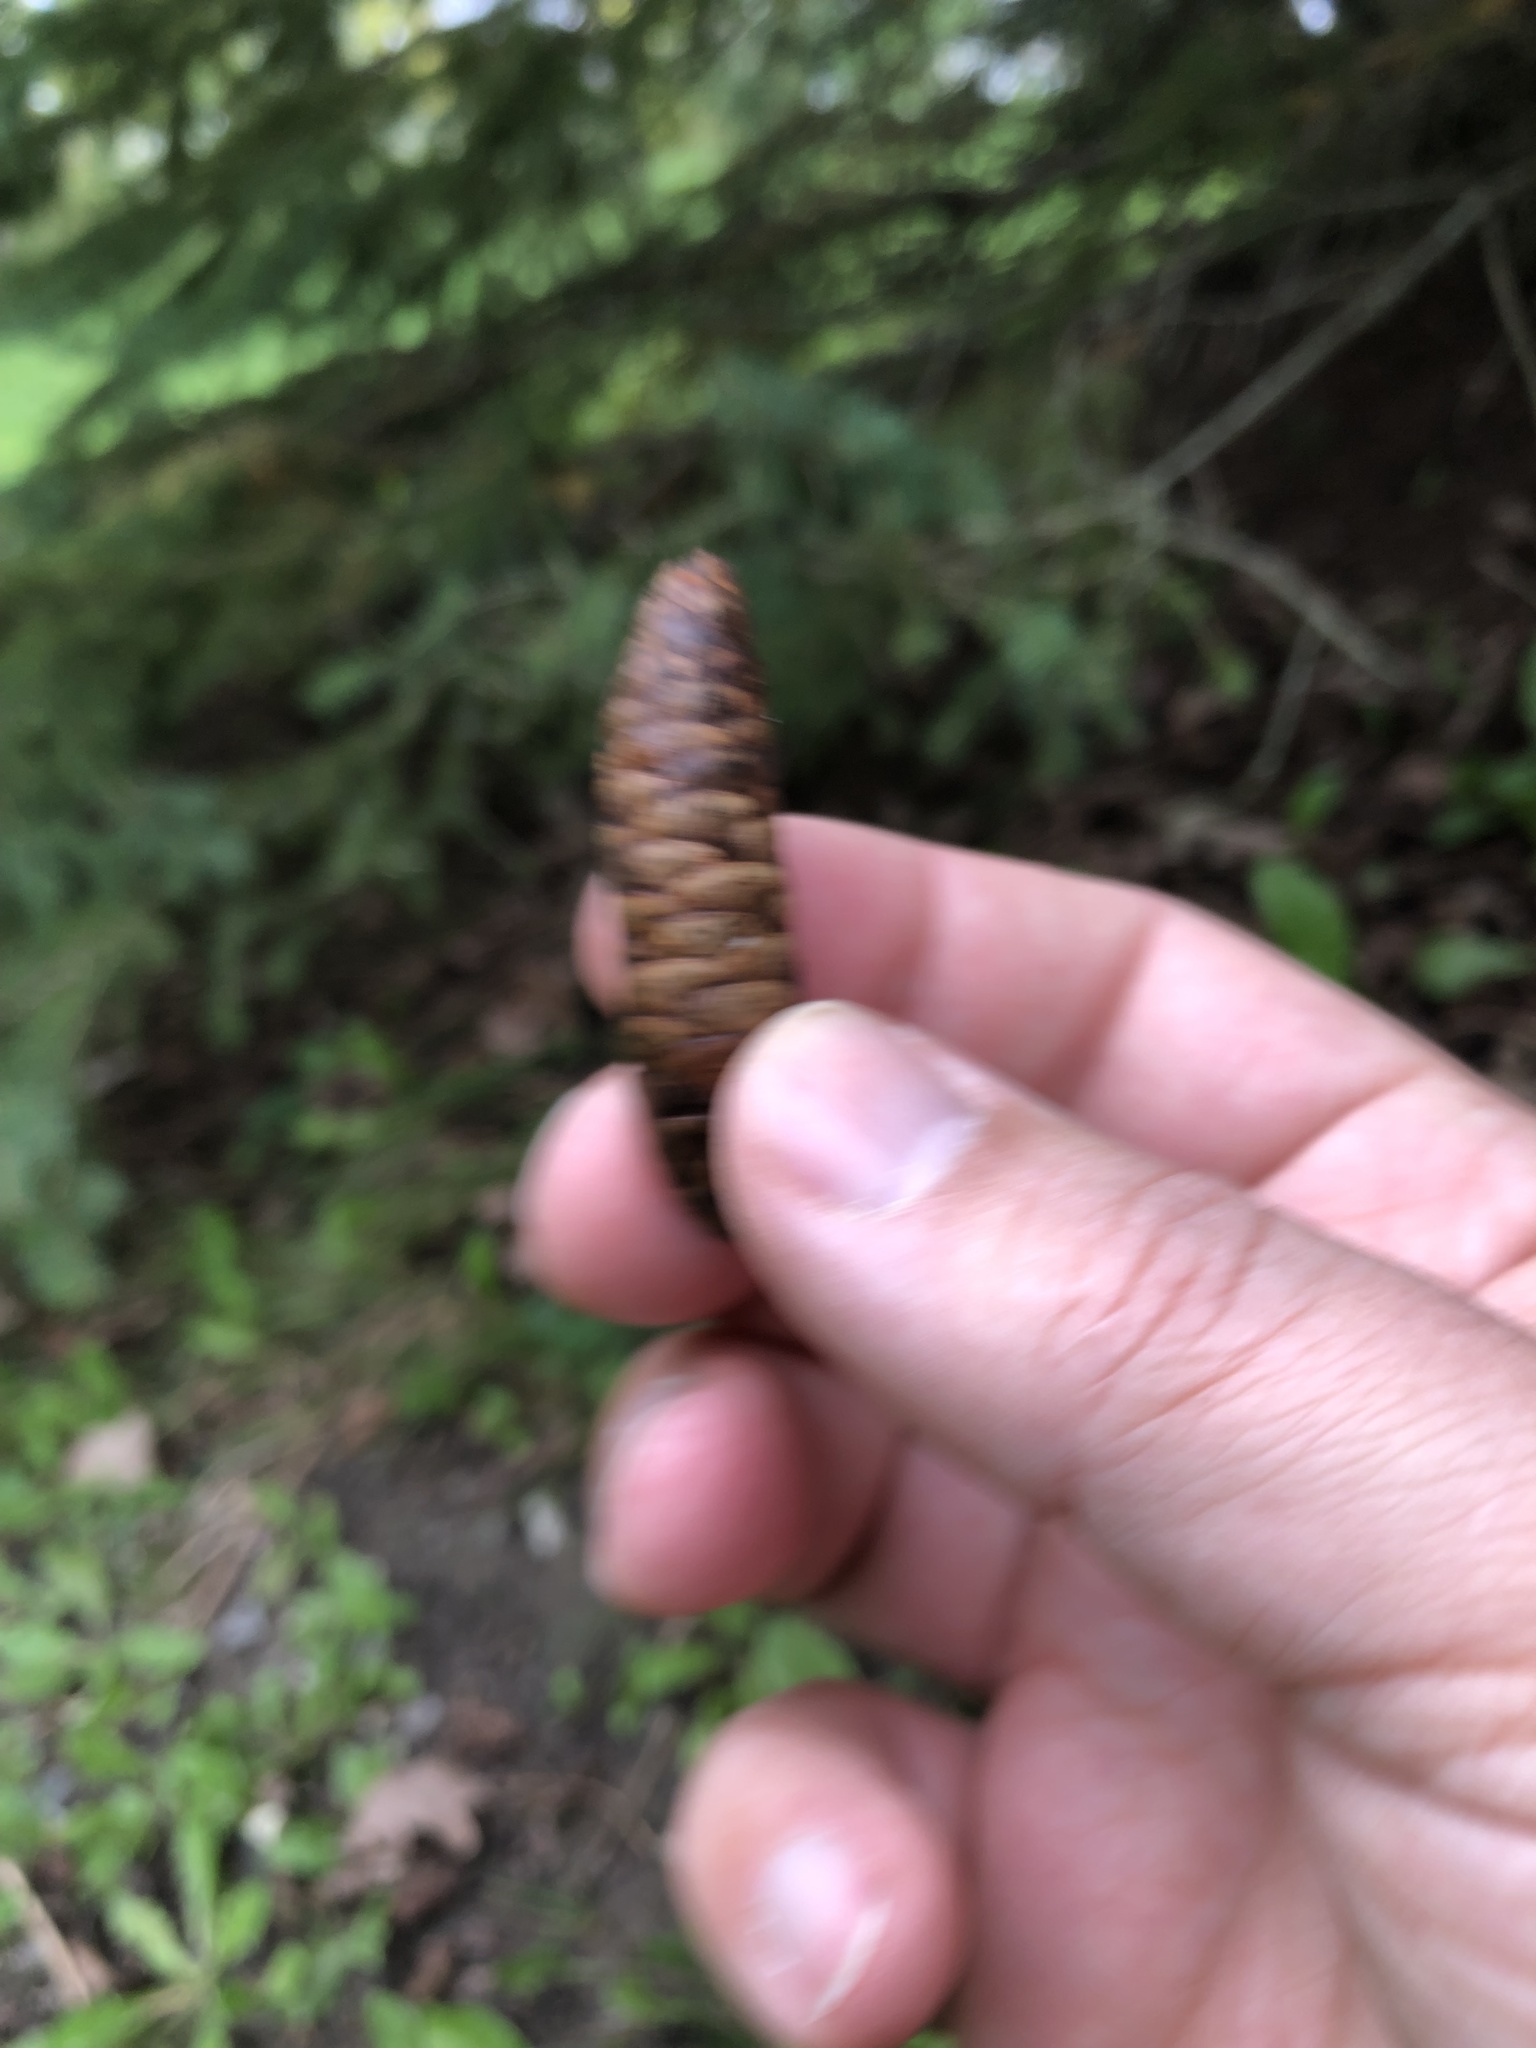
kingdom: Plantae
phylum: Tracheophyta
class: Pinopsida
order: Pinales
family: Pinaceae
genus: Picea
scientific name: Picea glauca
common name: White spruce
